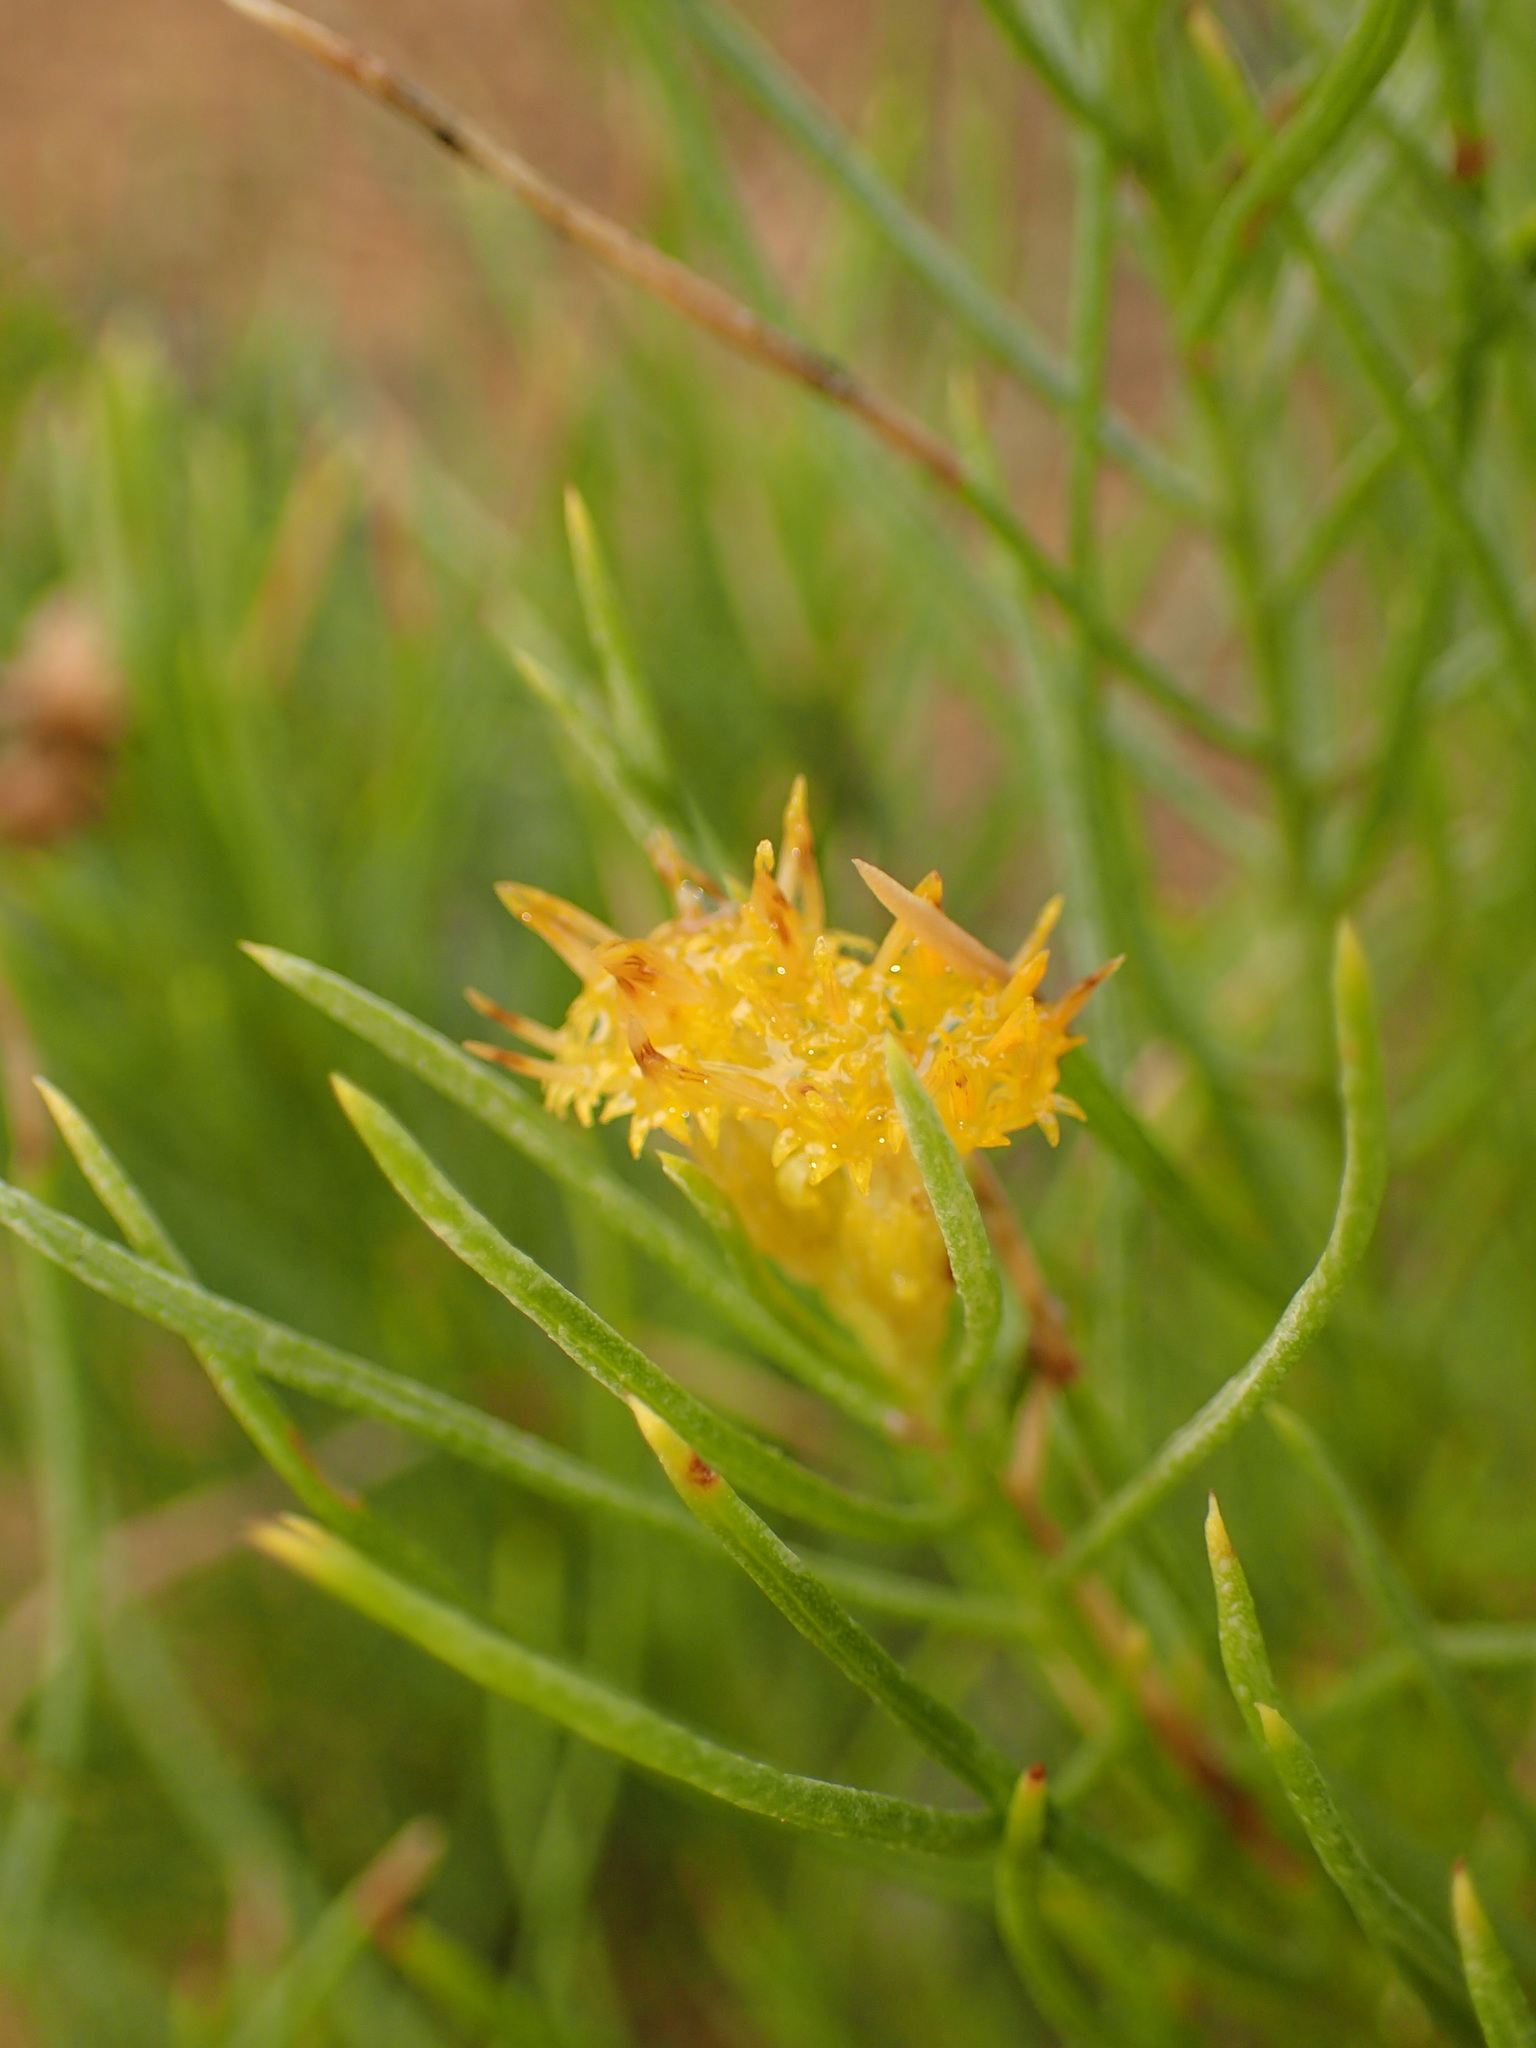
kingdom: Plantae
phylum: Tracheophyta
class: Magnoliopsida
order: Asterales
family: Asteraceae
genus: Ericameria
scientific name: Ericameria arborescens
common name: Goldenfleece
